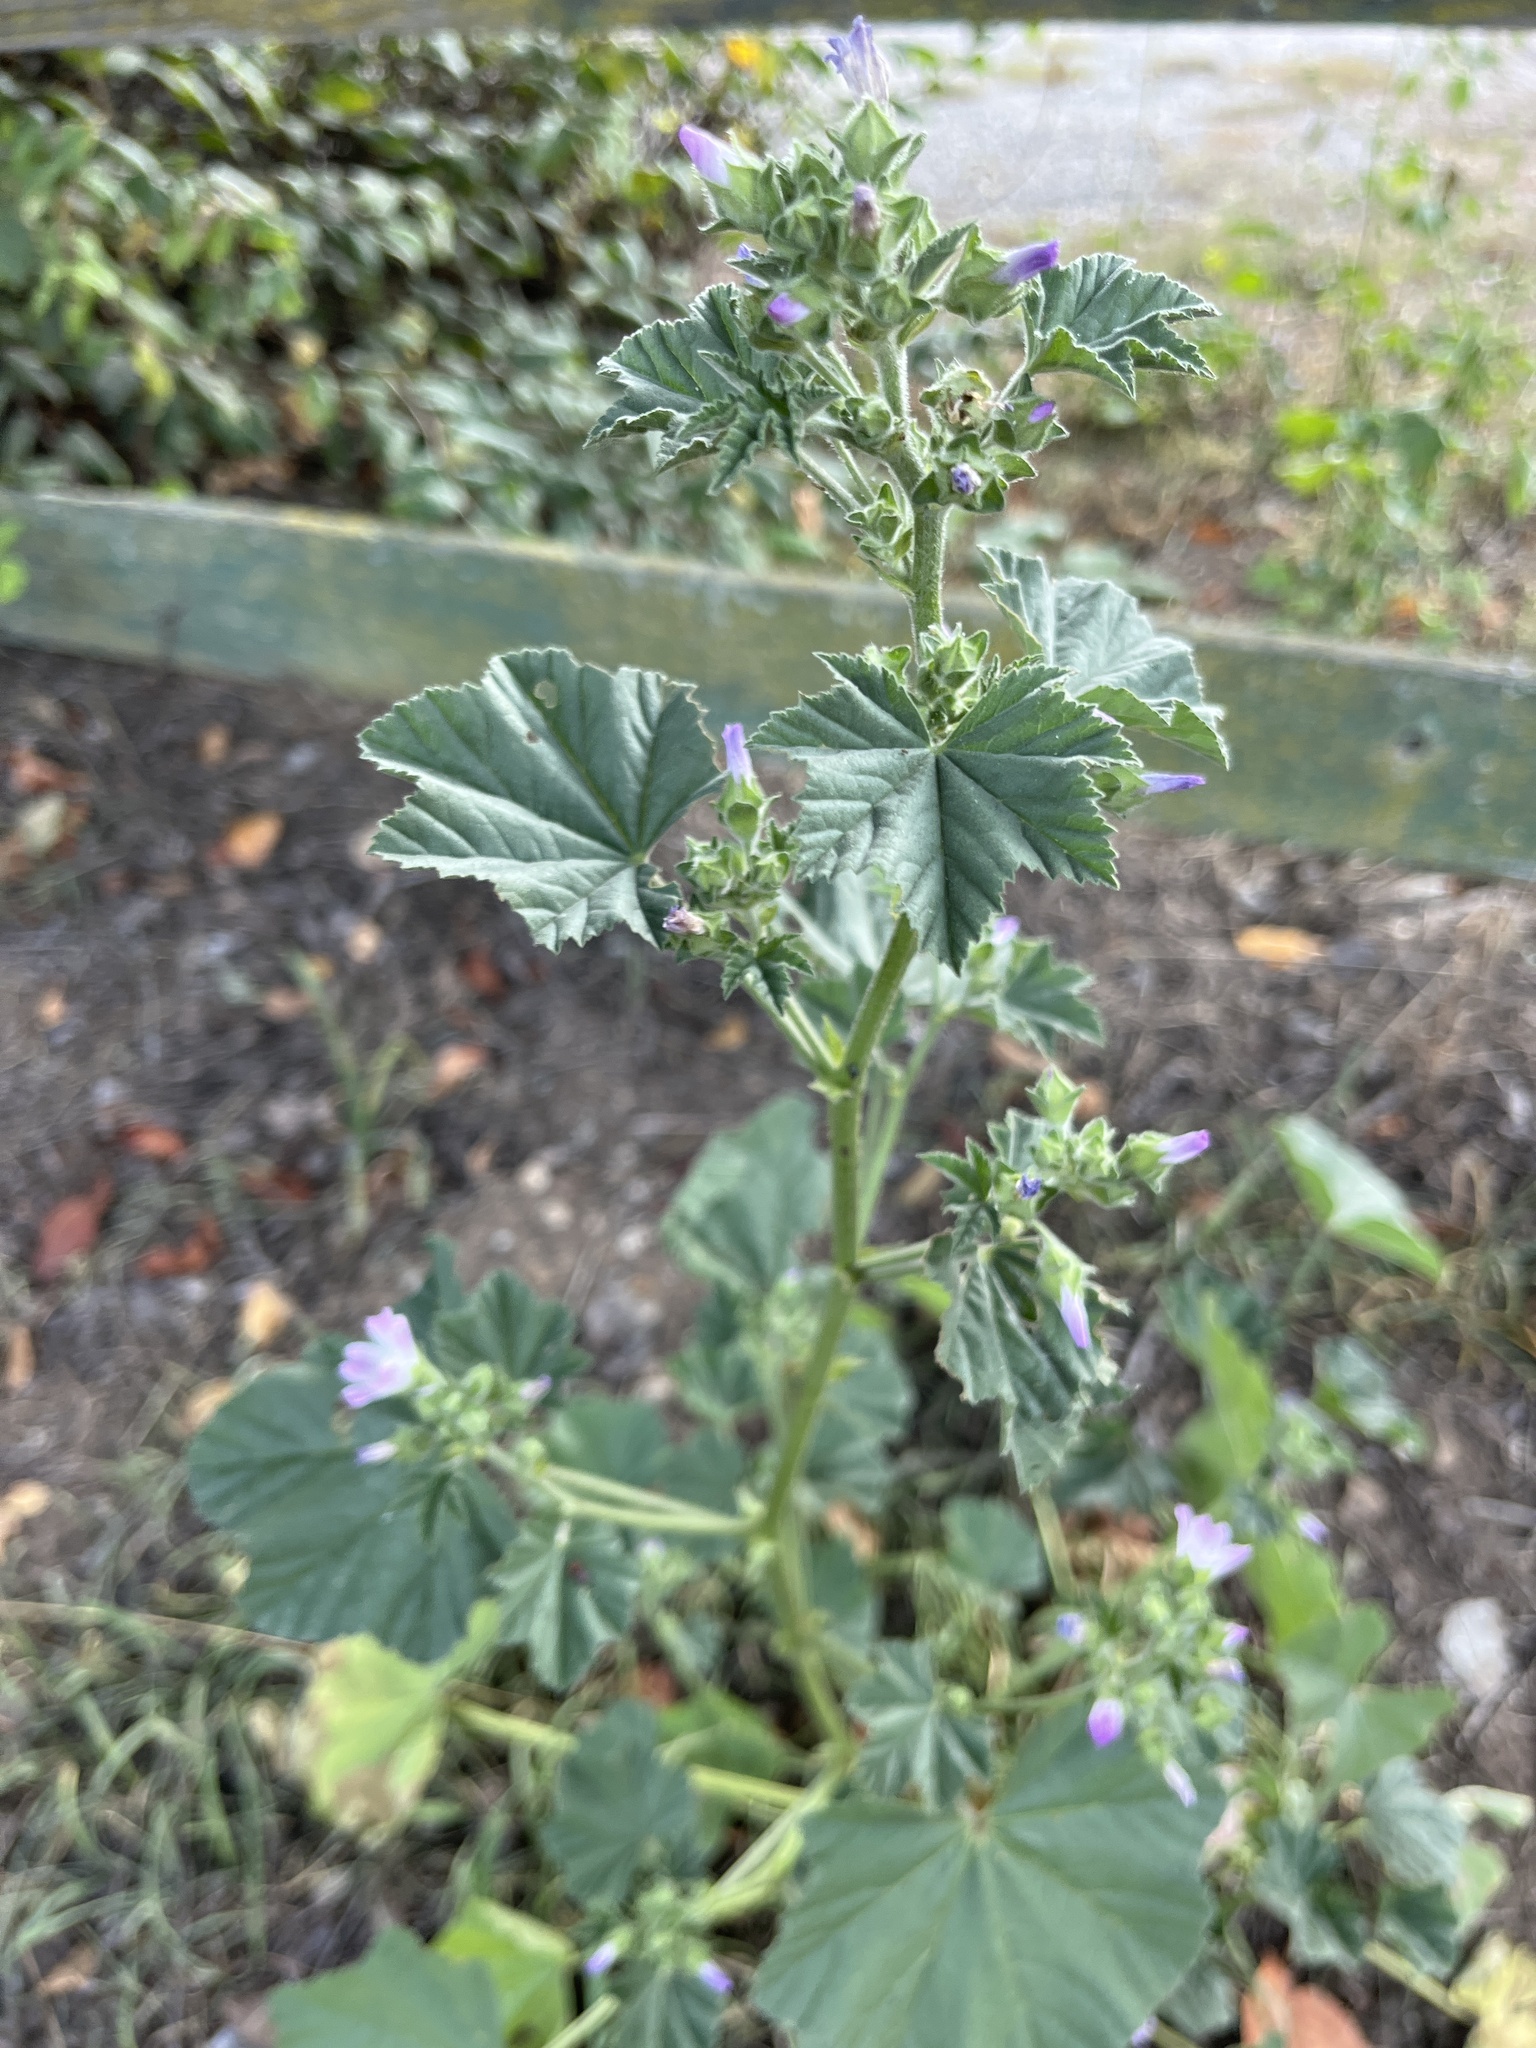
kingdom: Plantae
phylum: Tracheophyta
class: Magnoliopsida
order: Malvales
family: Malvaceae
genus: Malva
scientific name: Malva multiflora
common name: Cheeseweed
